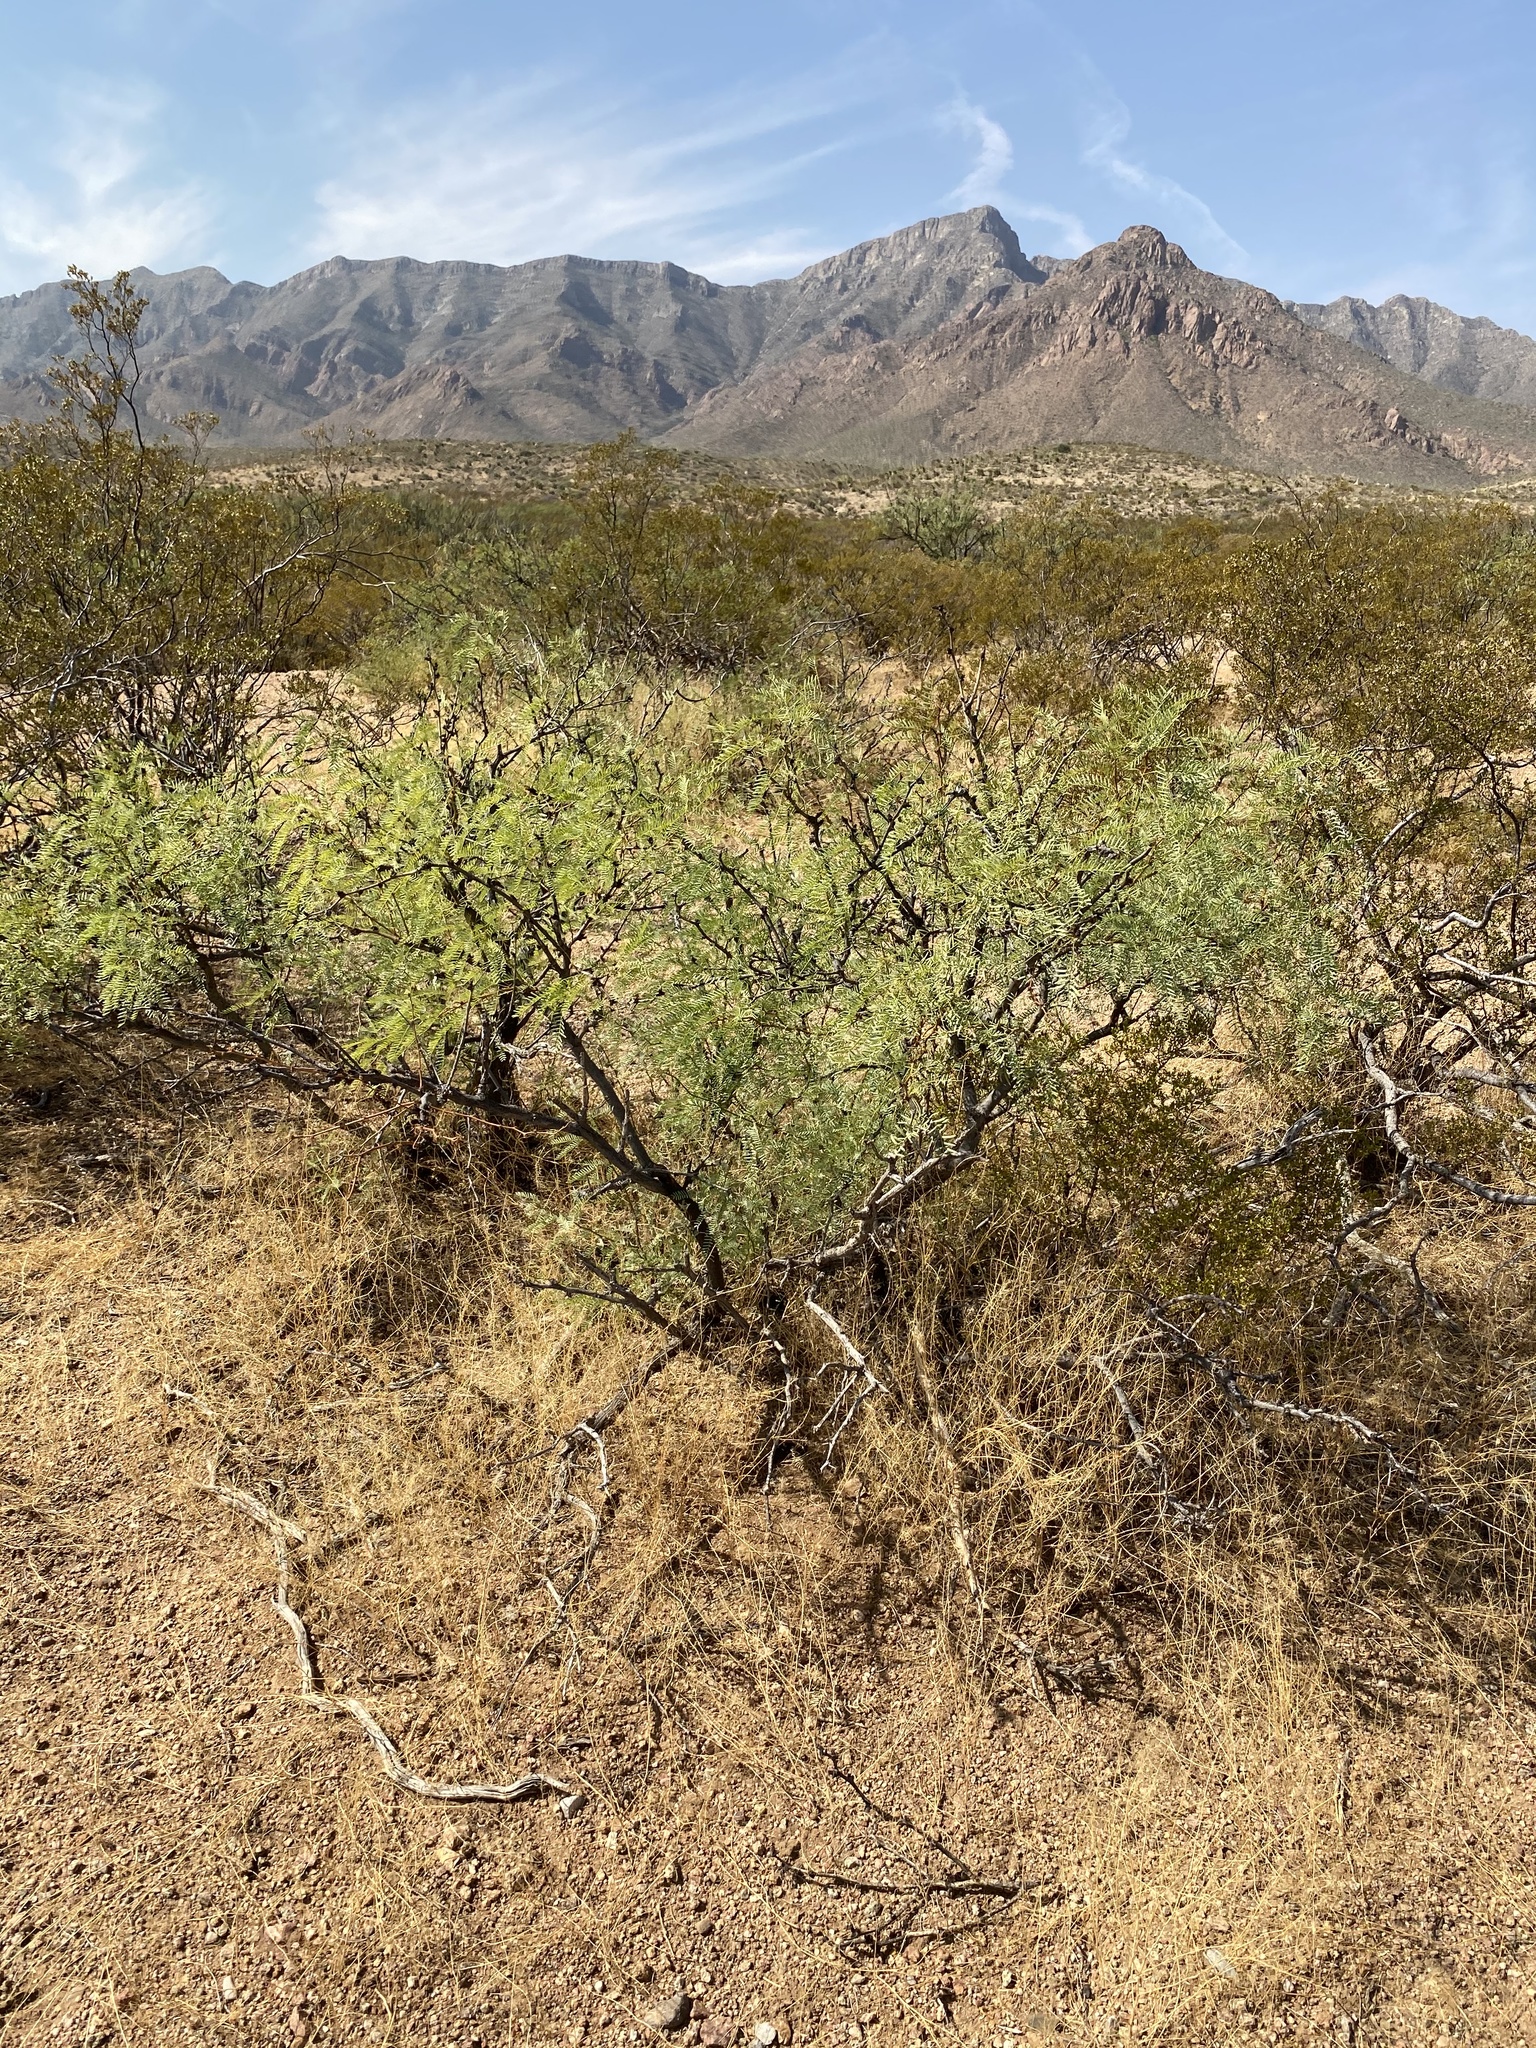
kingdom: Plantae
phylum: Tracheophyta
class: Magnoliopsida
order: Fabales
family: Fabaceae
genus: Prosopis
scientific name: Prosopis glandulosa
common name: Honey mesquite
